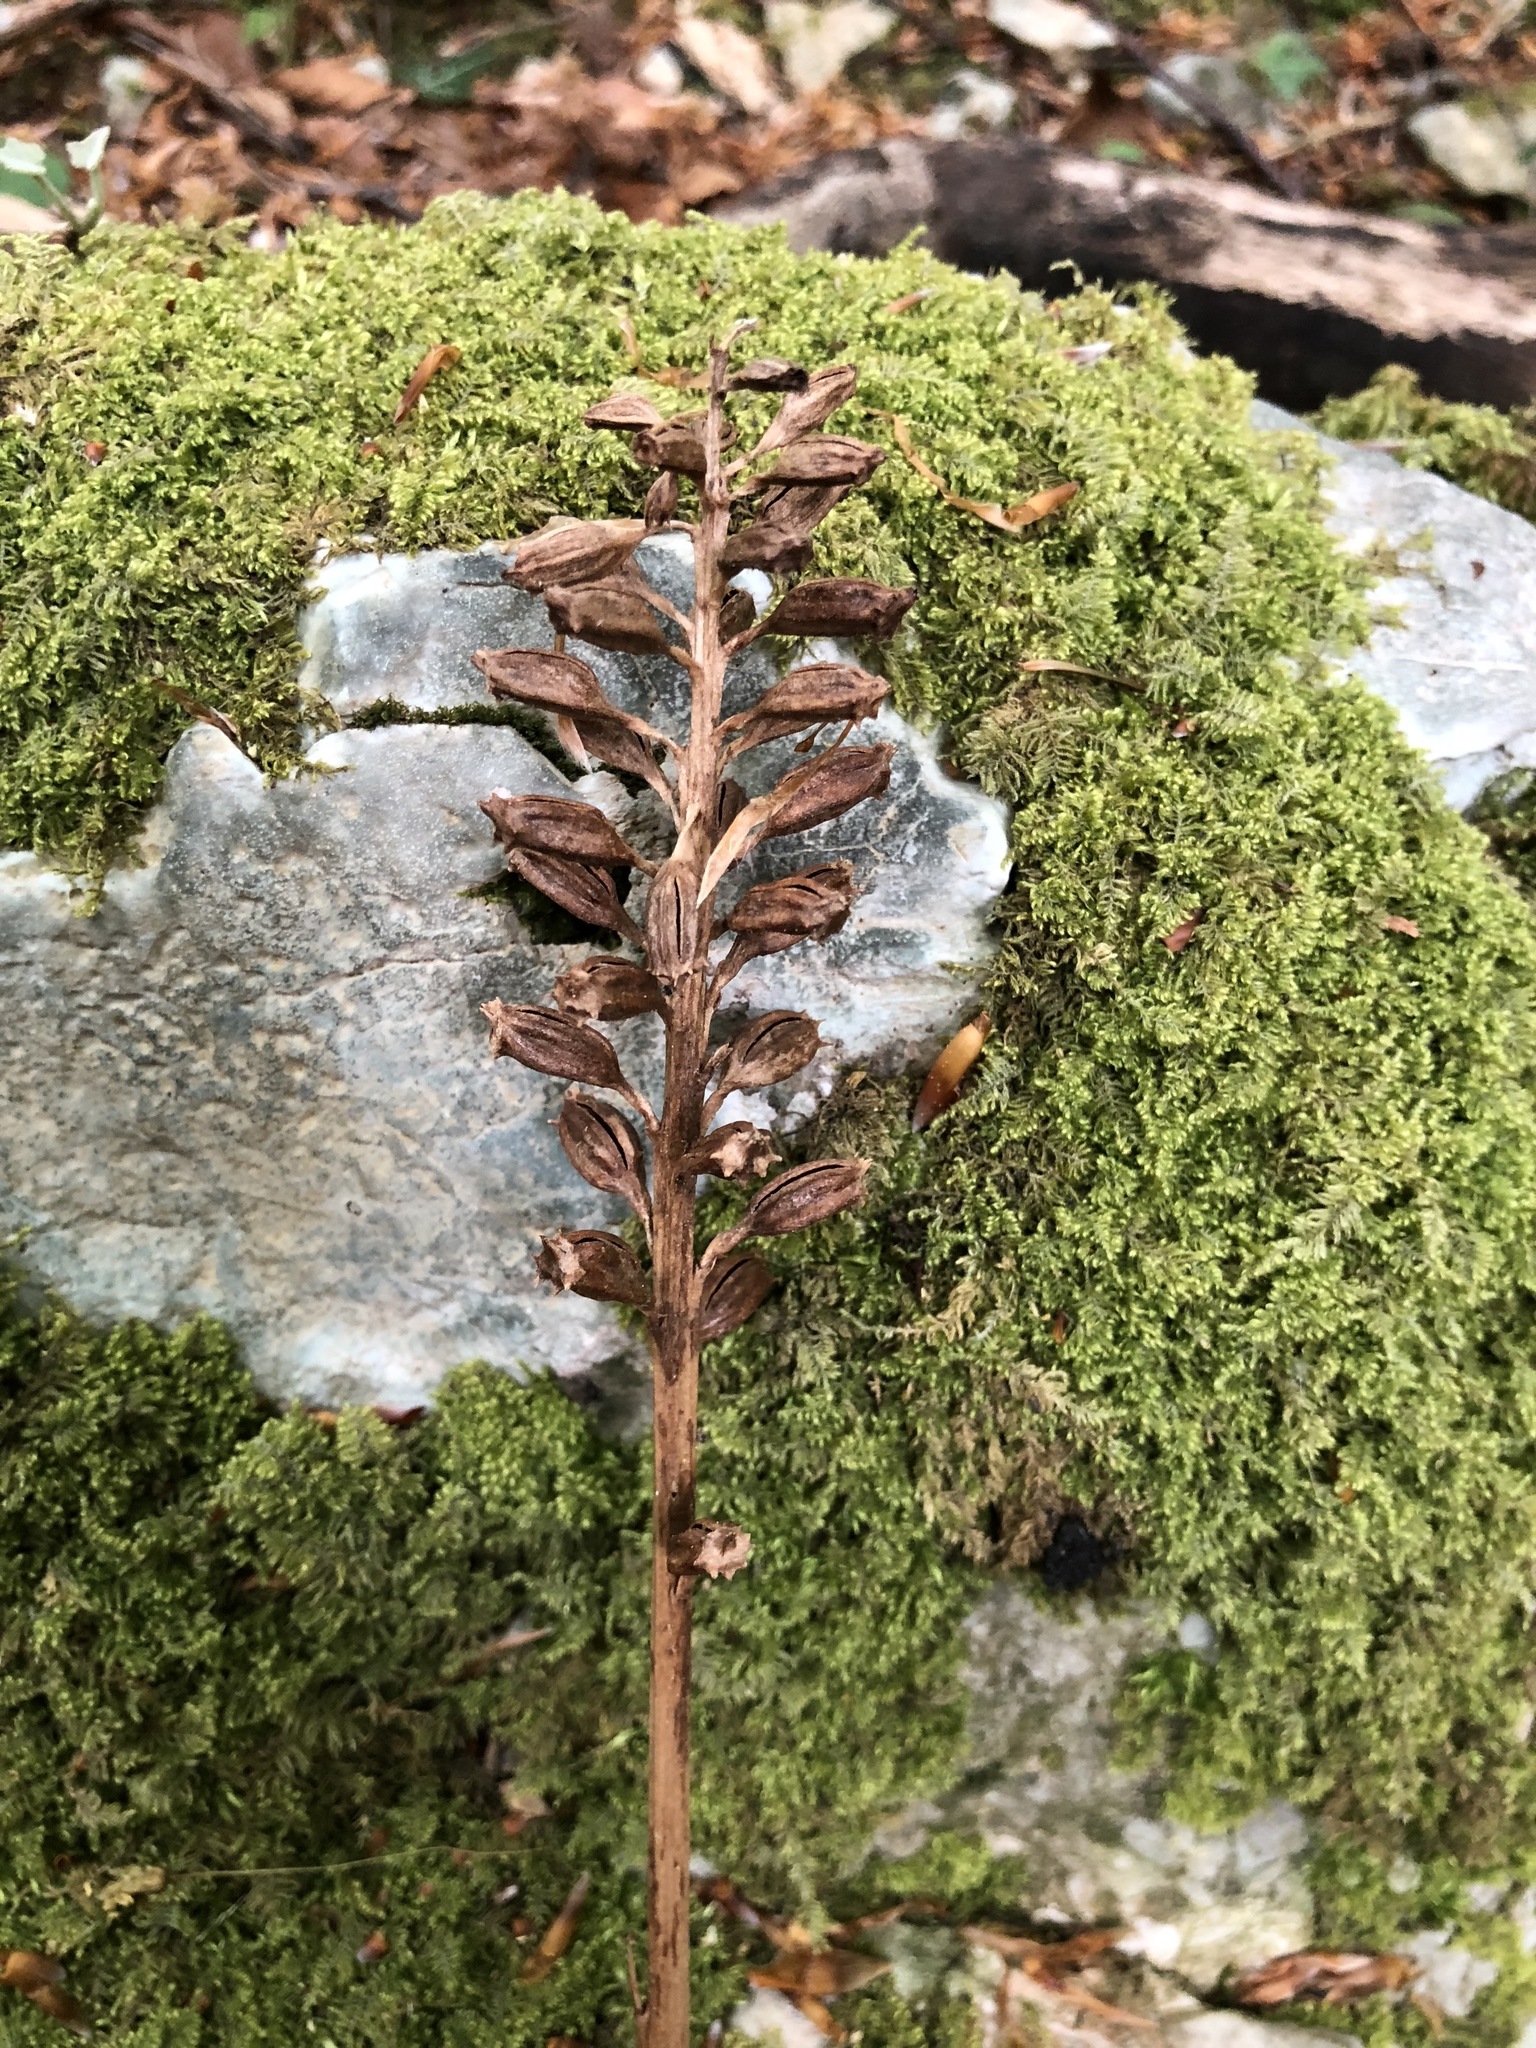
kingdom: Plantae
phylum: Tracheophyta
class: Liliopsida
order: Asparagales
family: Orchidaceae
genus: Neottia
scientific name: Neottia nidus-avis
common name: Bird's-nest orchid
